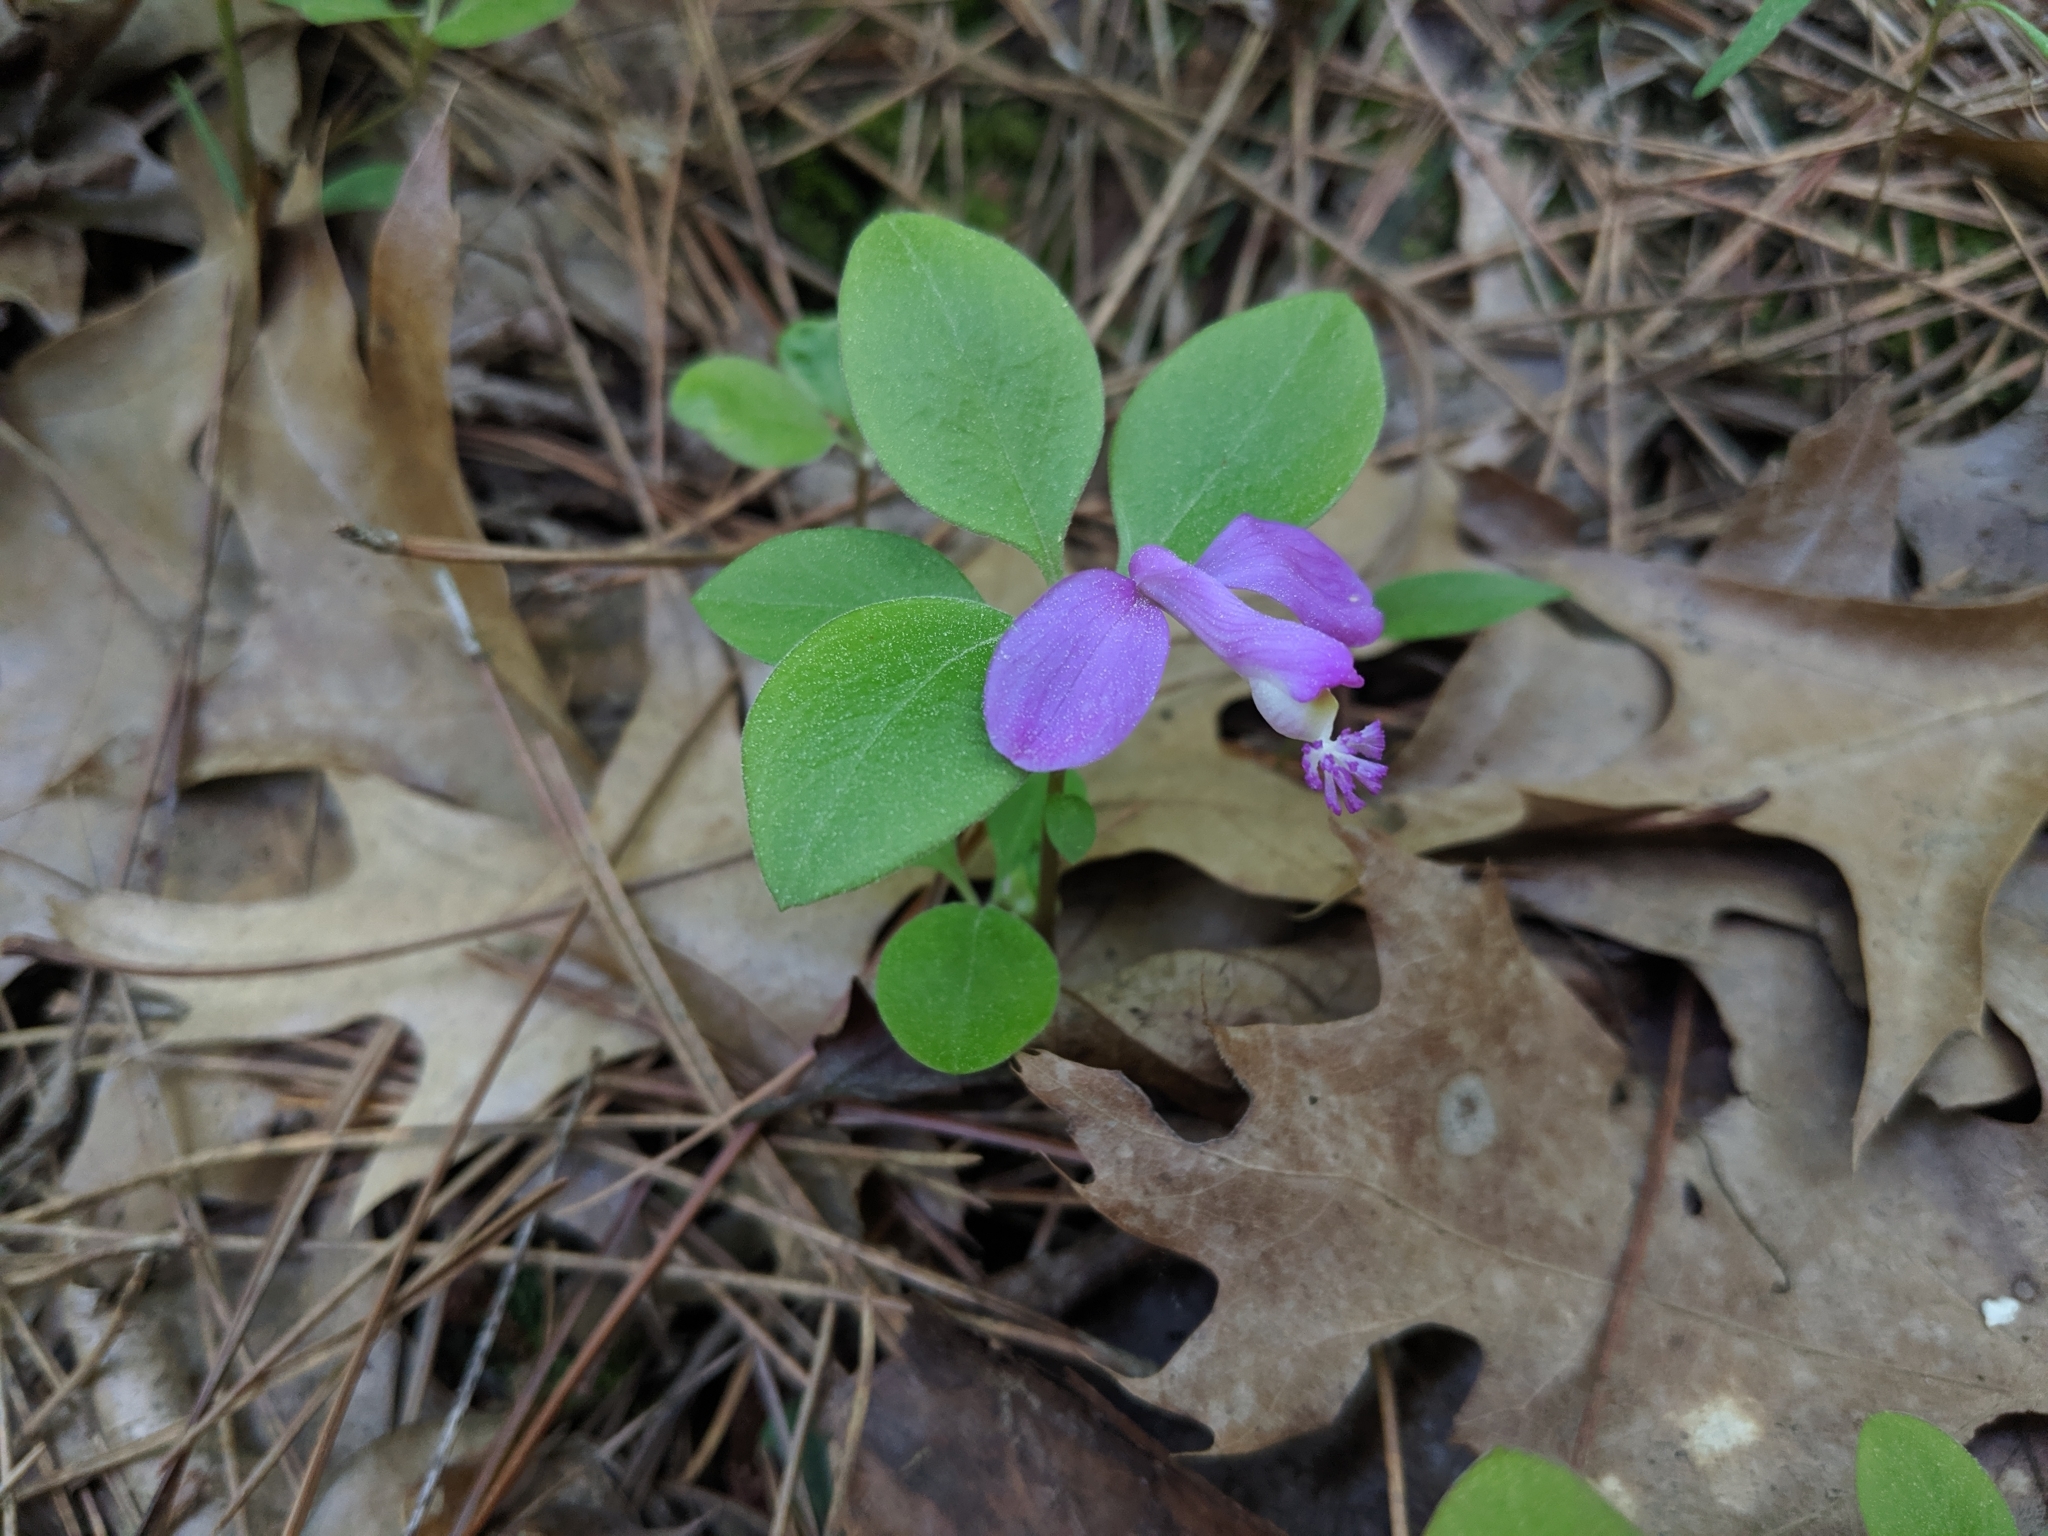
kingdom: Plantae
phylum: Tracheophyta
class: Magnoliopsida
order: Fabales
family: Polygalaceae
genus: Polygaloides
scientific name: Polygaloides paucifolia
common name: Bird-on-the-wing
